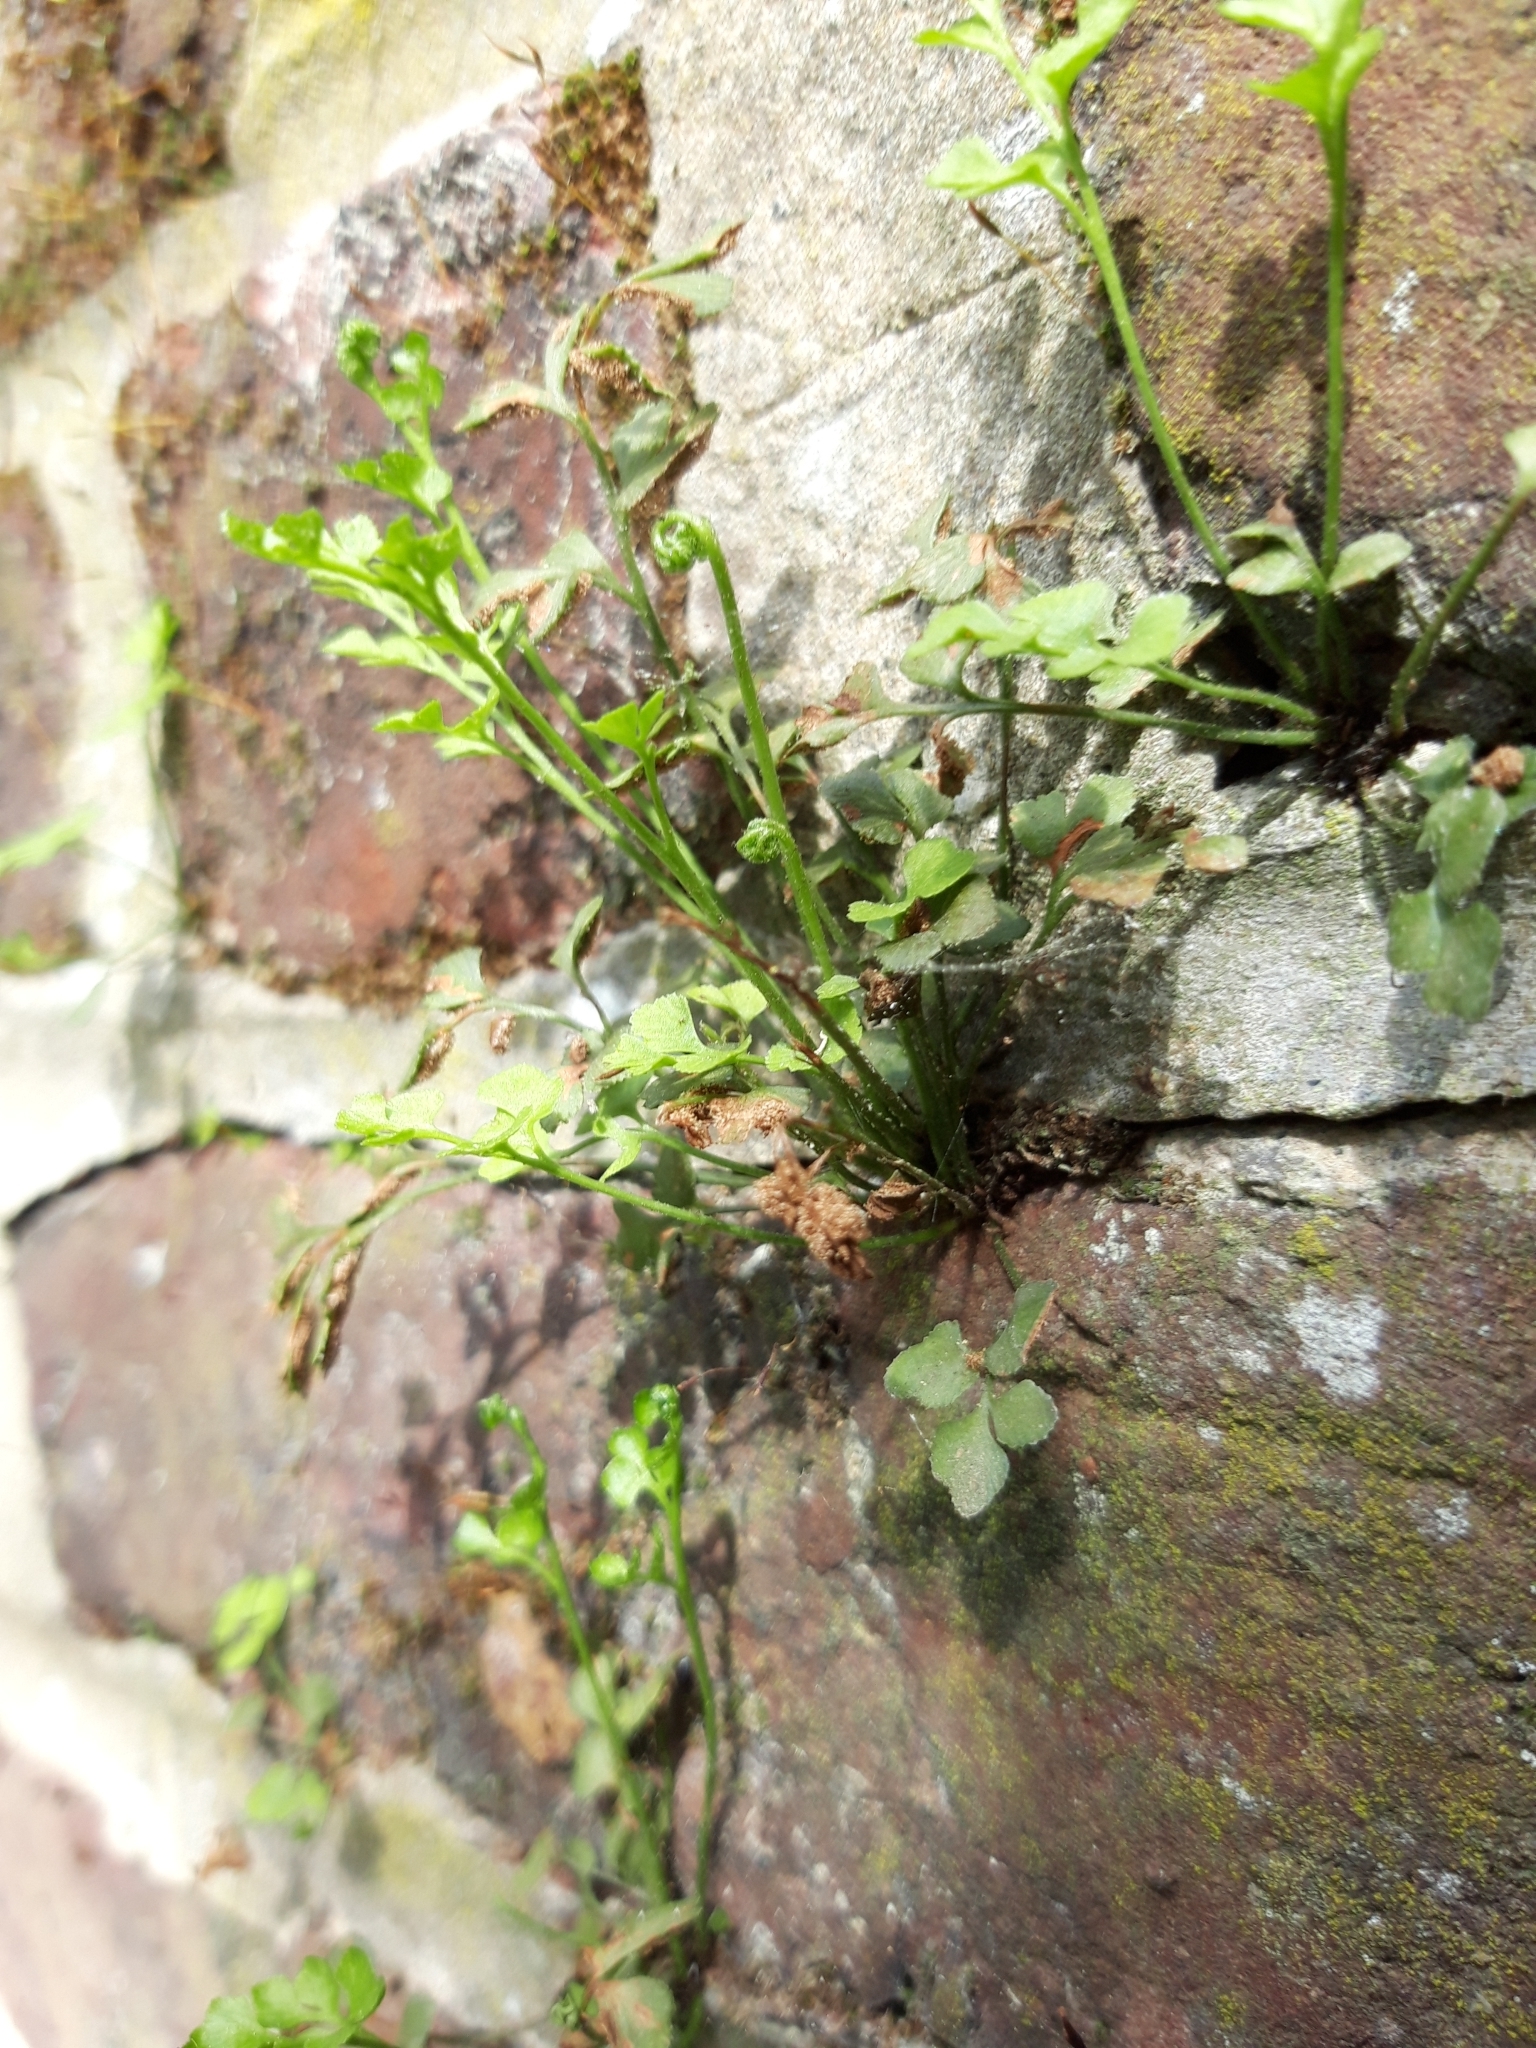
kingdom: Plantae
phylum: Tracheophyta
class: Polypodiopsida
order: Polypodiales
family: Aspleniaceae
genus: Asplenium
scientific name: Asplenium ruta-muraria
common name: Wall-rue
